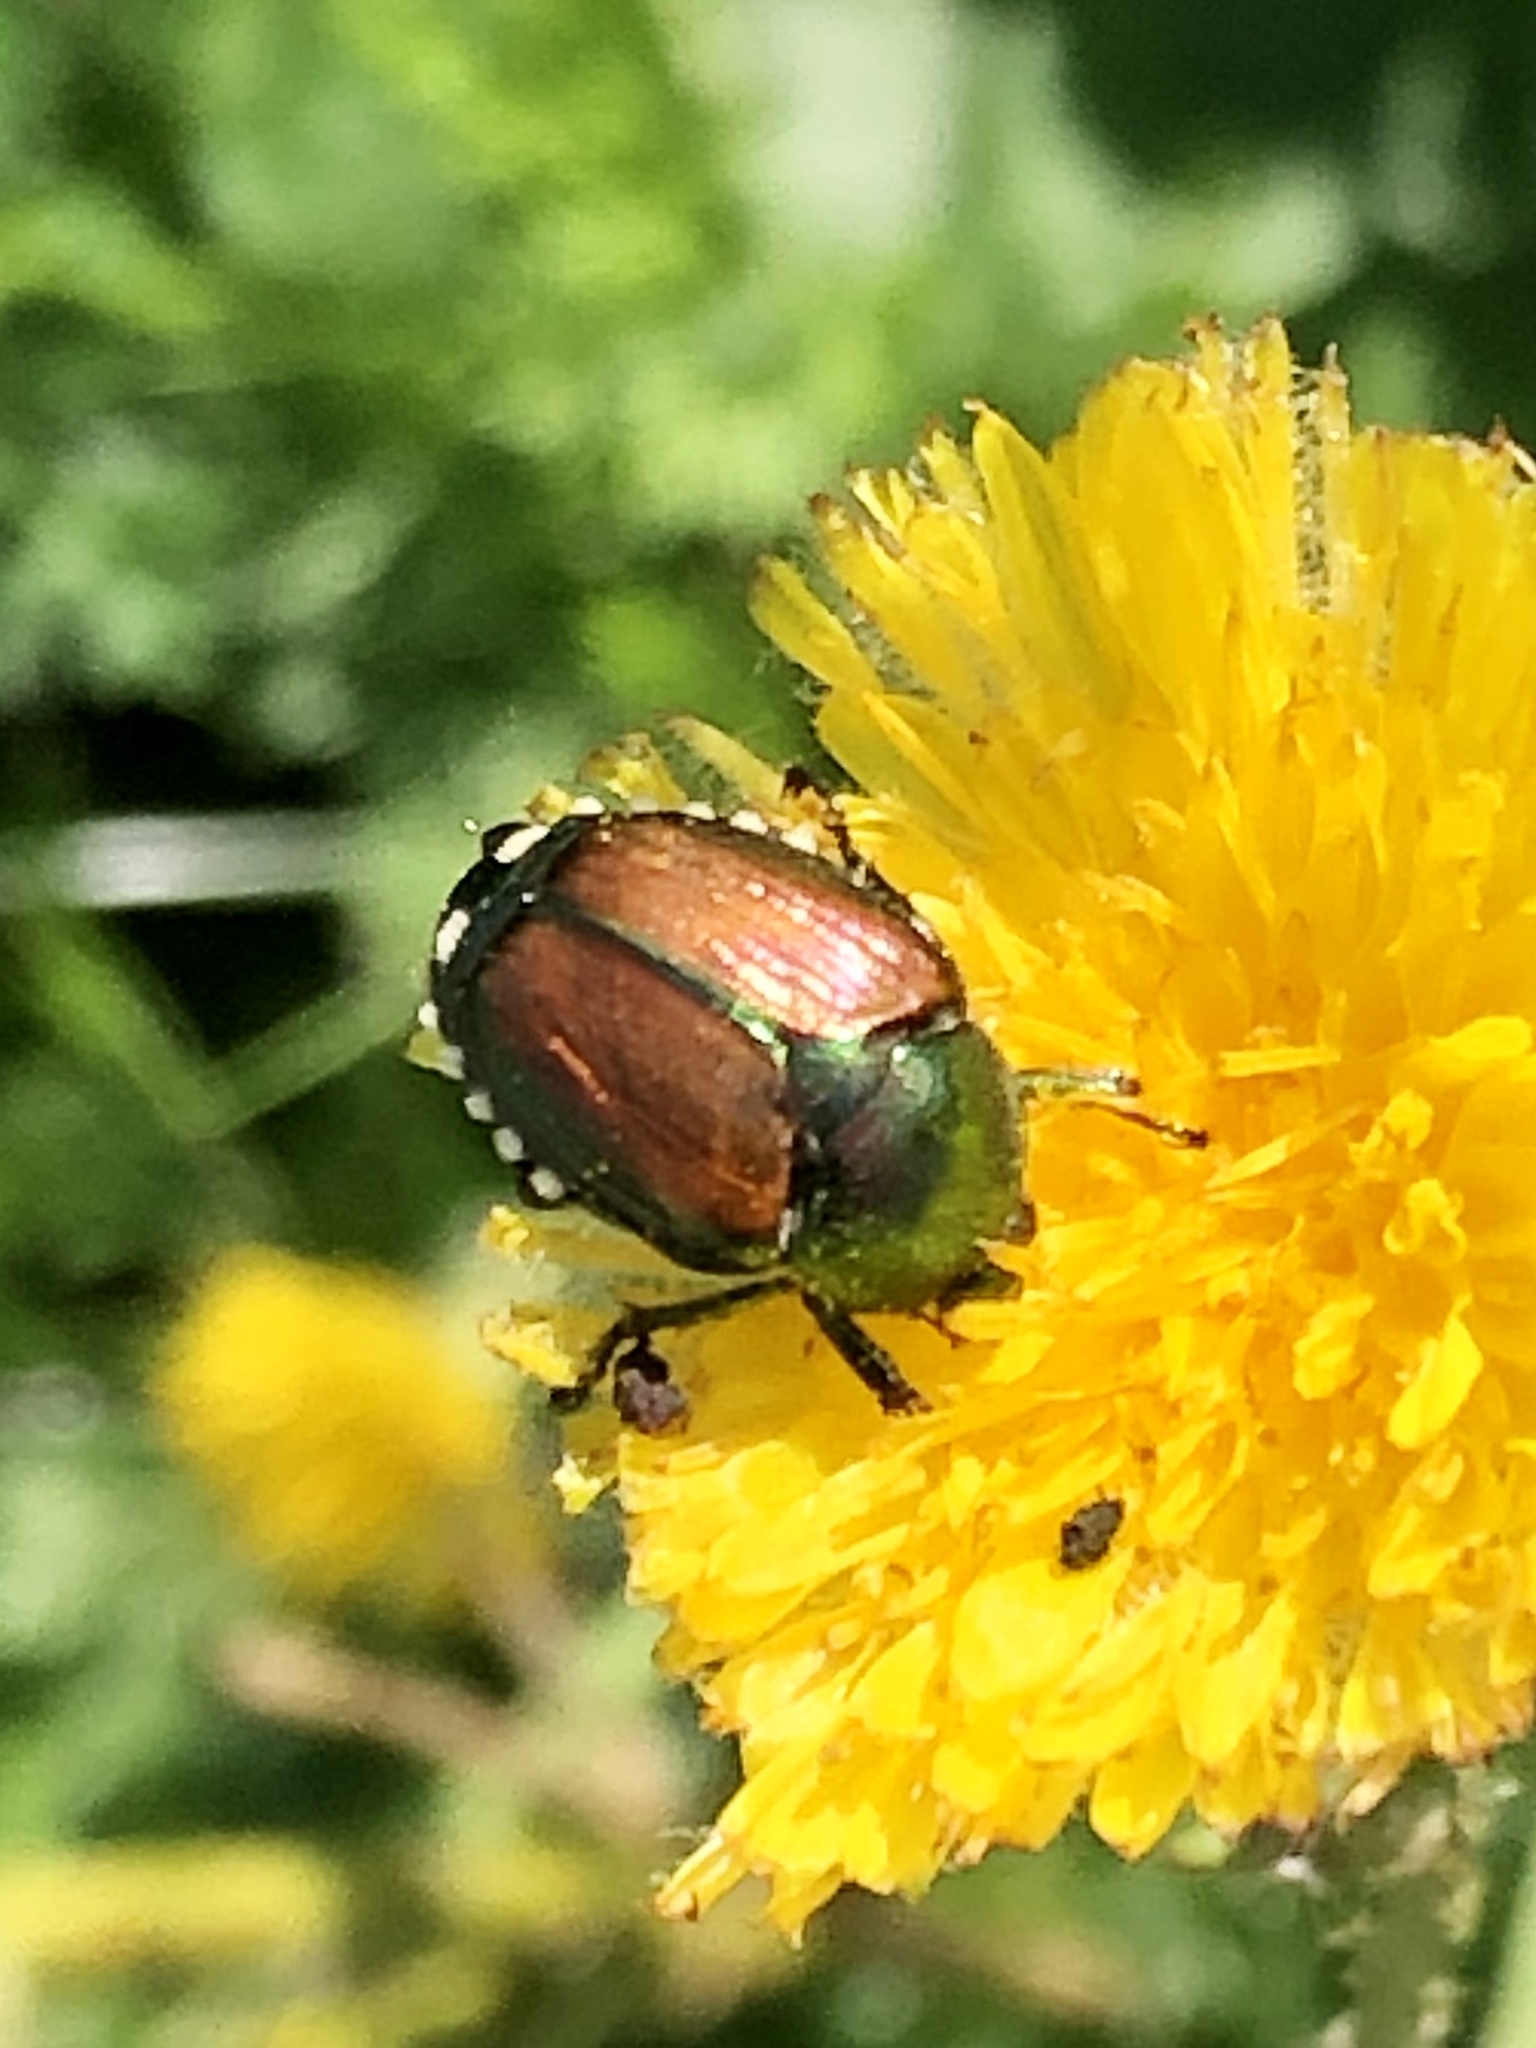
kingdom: Animalia
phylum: Arthropoda
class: Insecta
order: Coleoptera
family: Scarabaeidae
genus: Popillia
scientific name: Popillia japonica
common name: Japanese beetle
